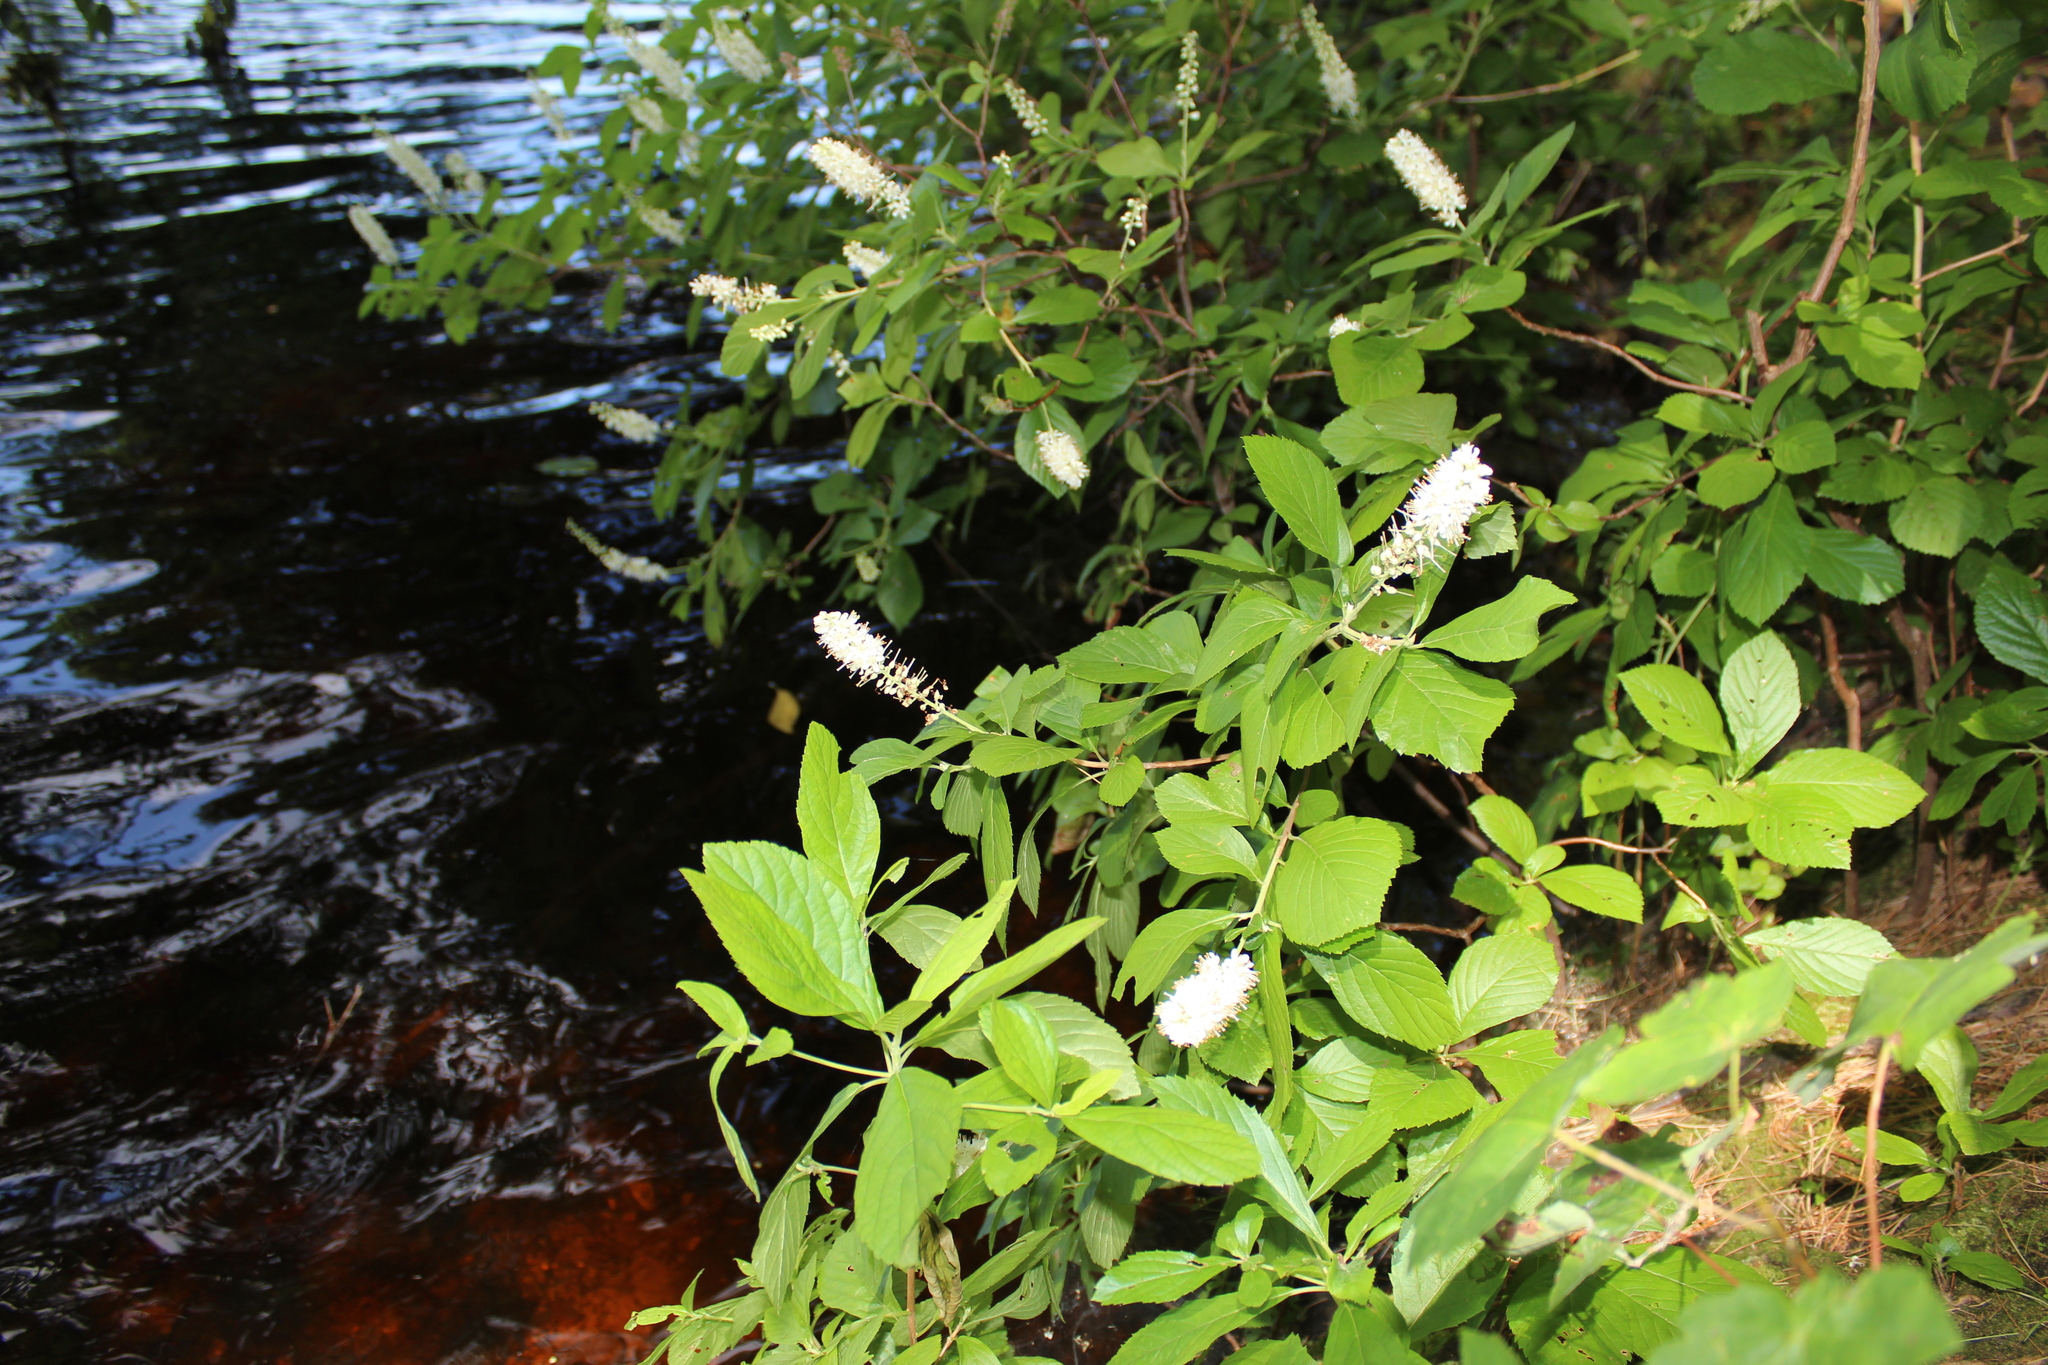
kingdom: Plantae
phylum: Tracheophyta
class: Magnoliopsida
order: Ericales
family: Clethraceae
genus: Clethra
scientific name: Clethra alnifolia
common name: Sweet pepperbush
